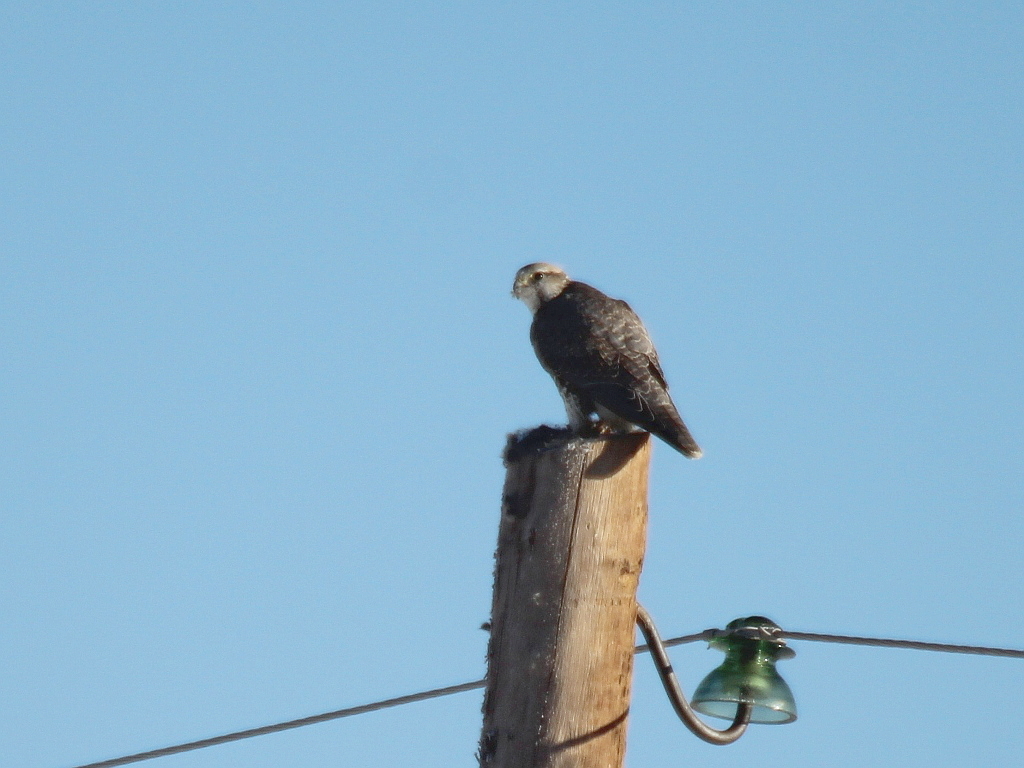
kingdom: Animalia
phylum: Chordata
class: Aves
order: Falconiformes
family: Falconidae
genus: Falco
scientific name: Falco cherrug
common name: Saker falcon
